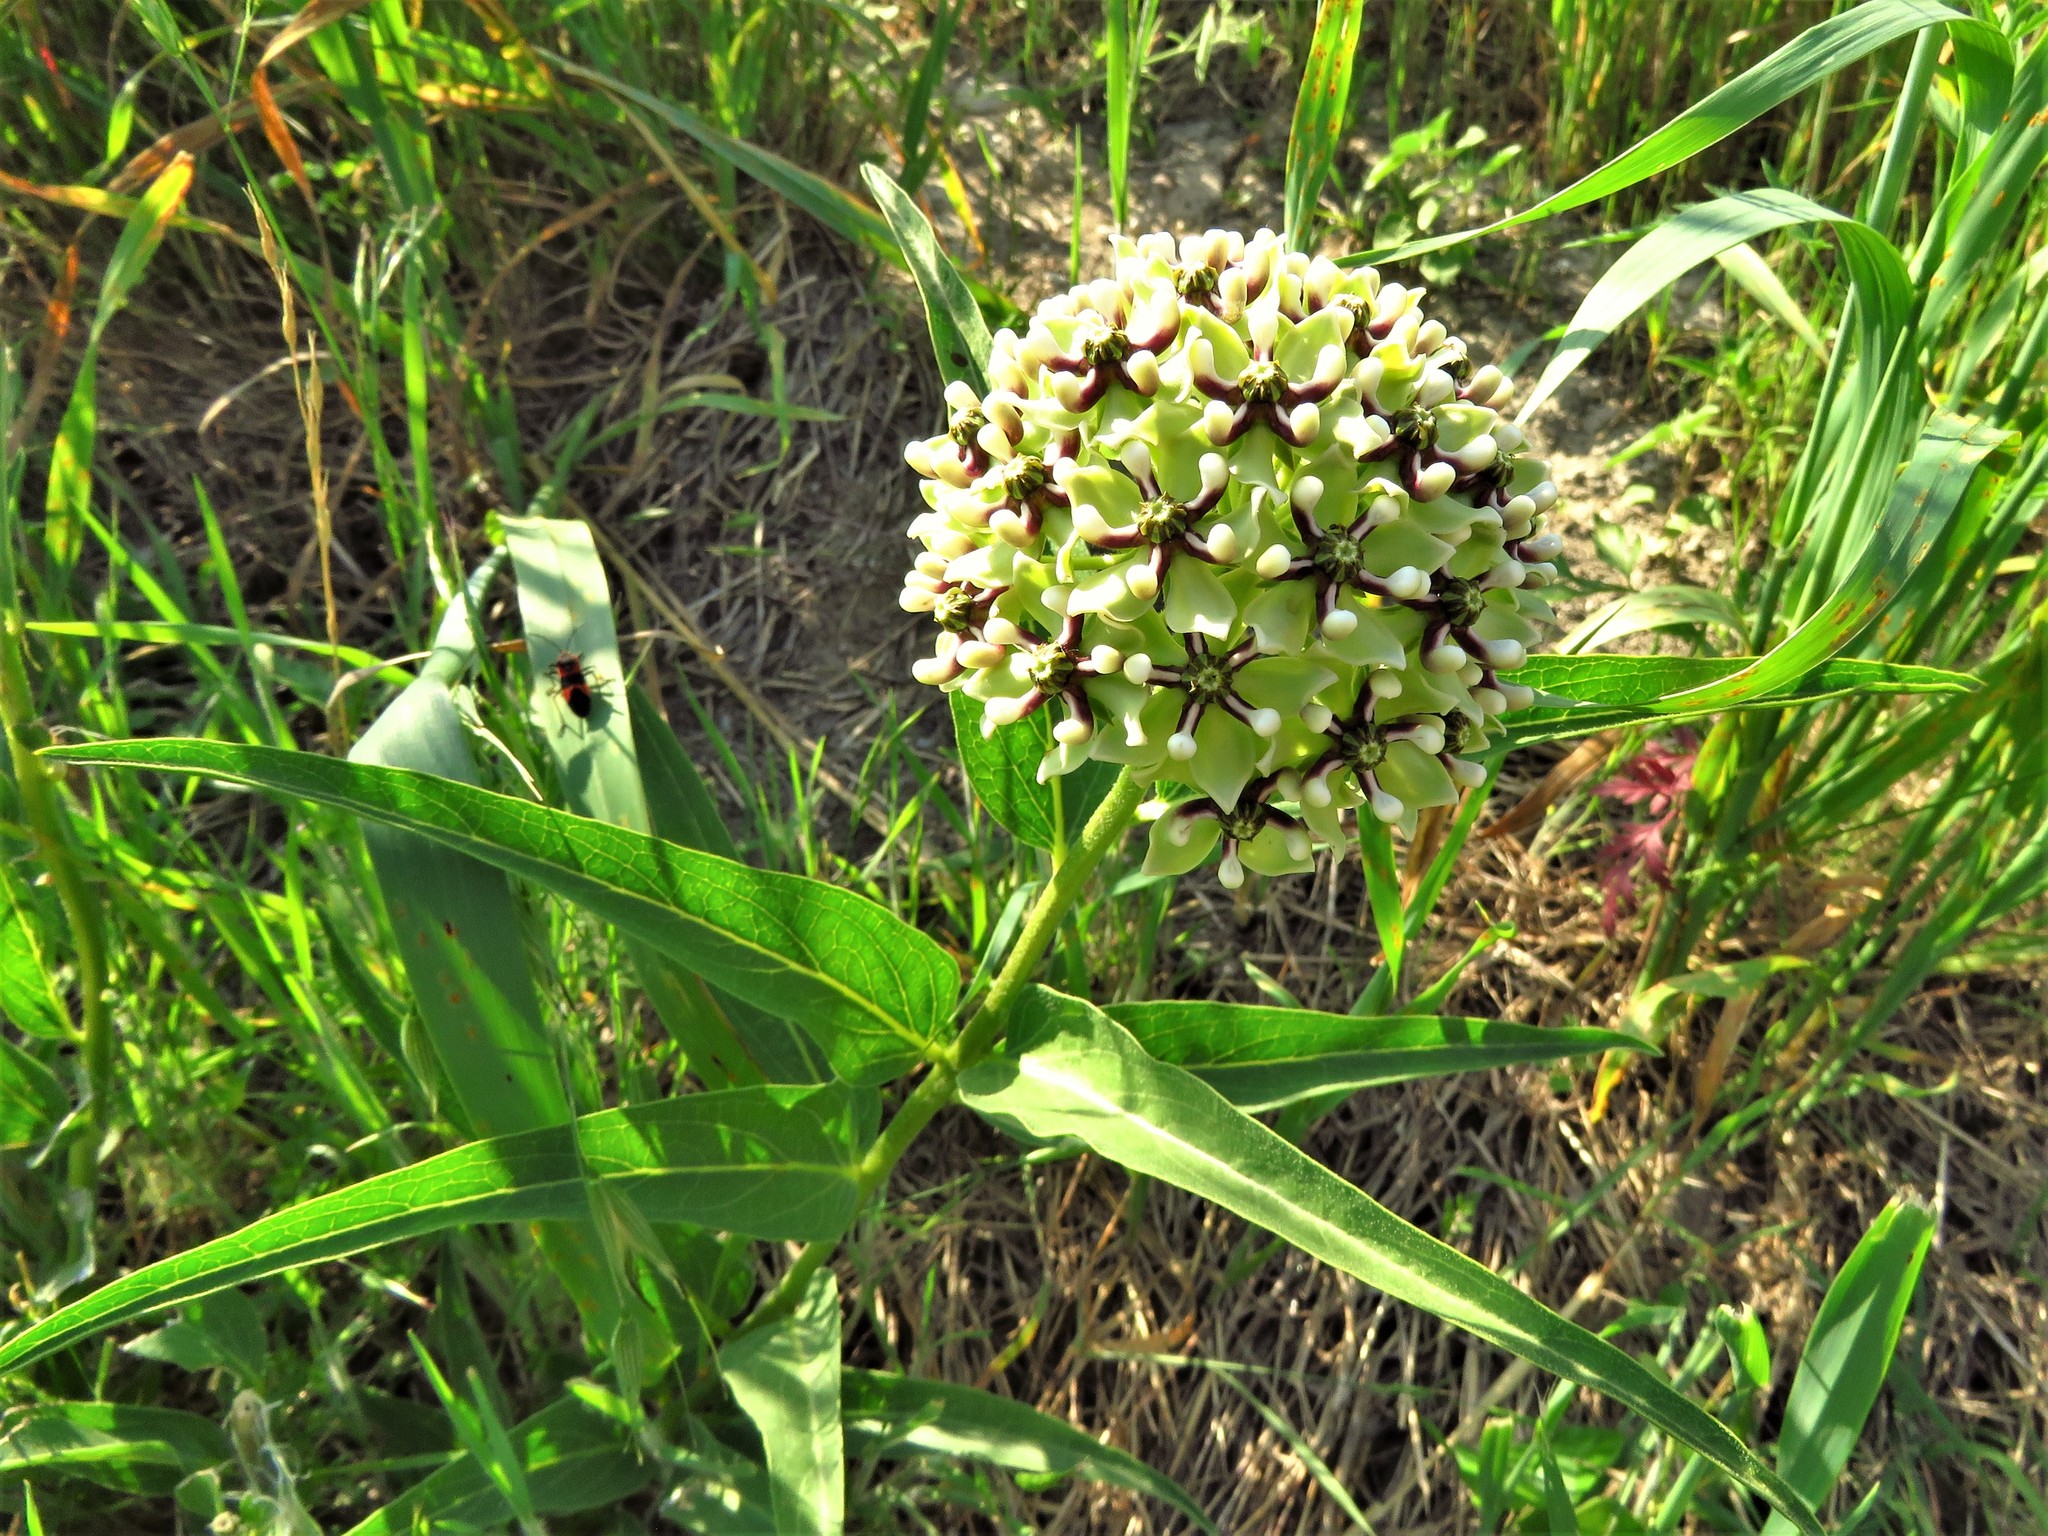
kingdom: Plantae
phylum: Tracheophyta
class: Magnoliopsida
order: Gentianales
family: Apocynaceae
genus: Asclepias
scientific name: Asclepias asperula
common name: Antelope horns
